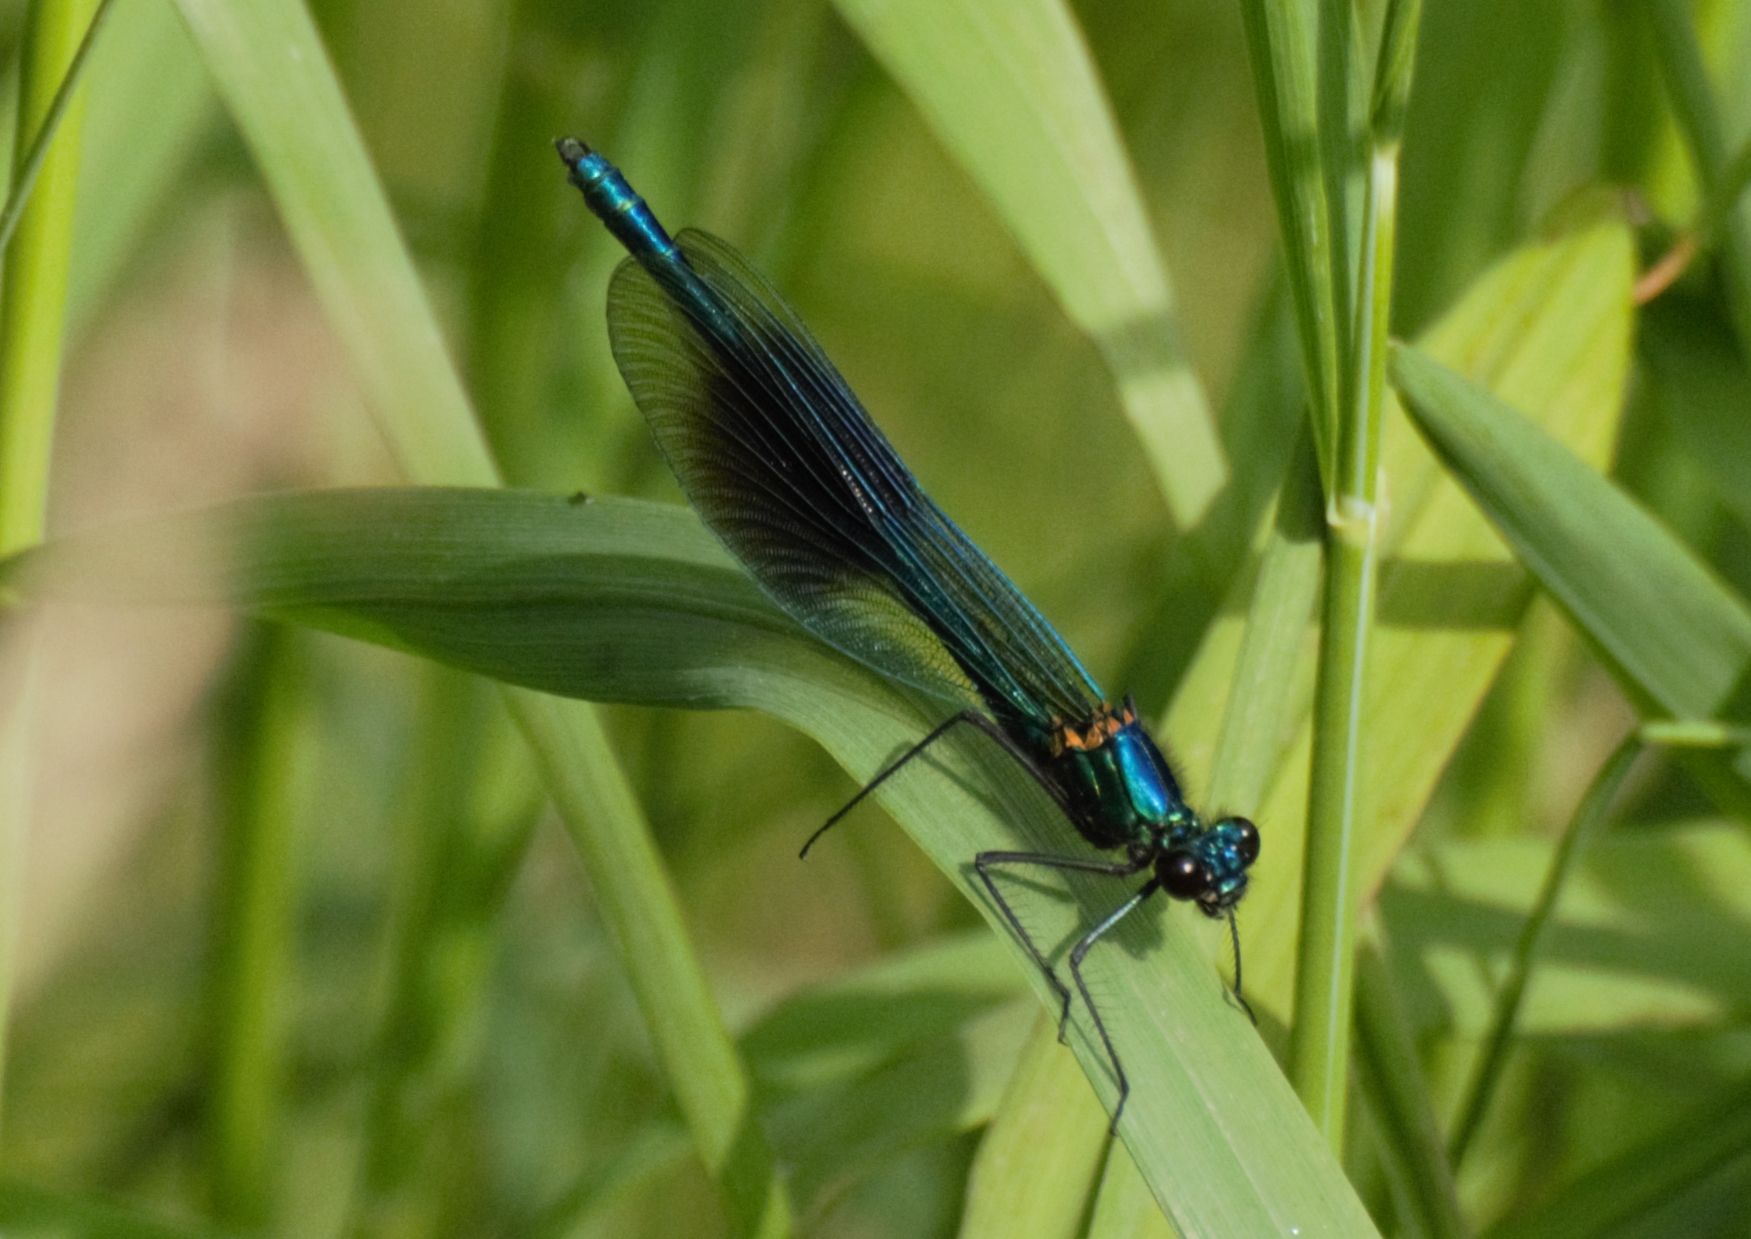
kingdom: Animalia
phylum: Arthropoda
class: Insecta
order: Odonata
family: Calopterygidae
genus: Calopteryx
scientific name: Calopteryx splendens
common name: Banded demoiselle
